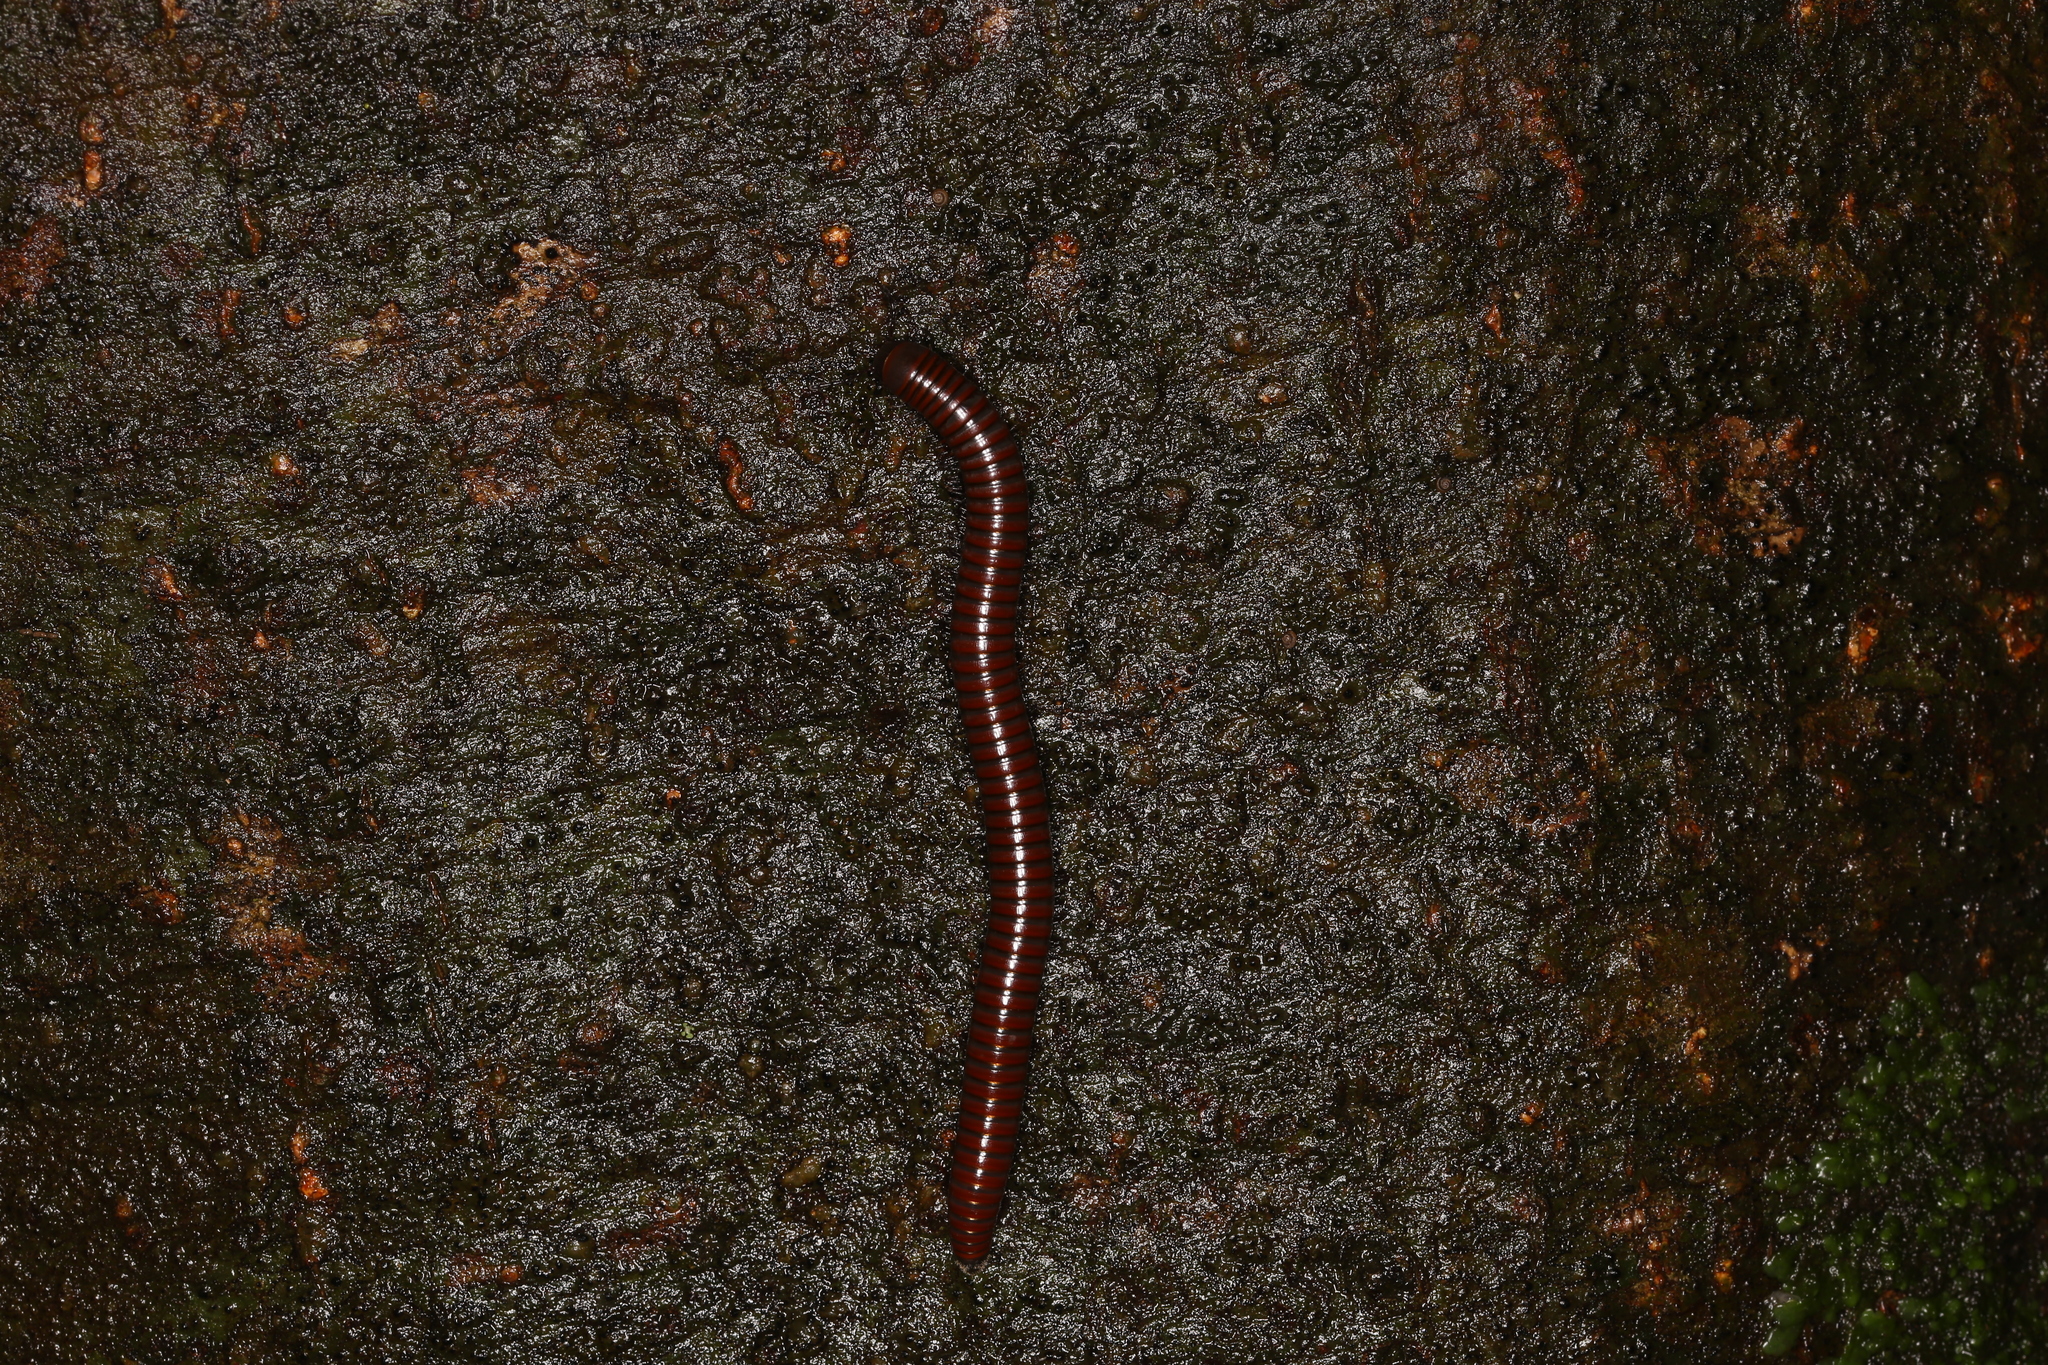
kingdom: Animalia
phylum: Arthropoda
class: Diplopoda
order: Julida
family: Julidae
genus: Pachyiulus
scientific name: Pachyiulus hungaricus
